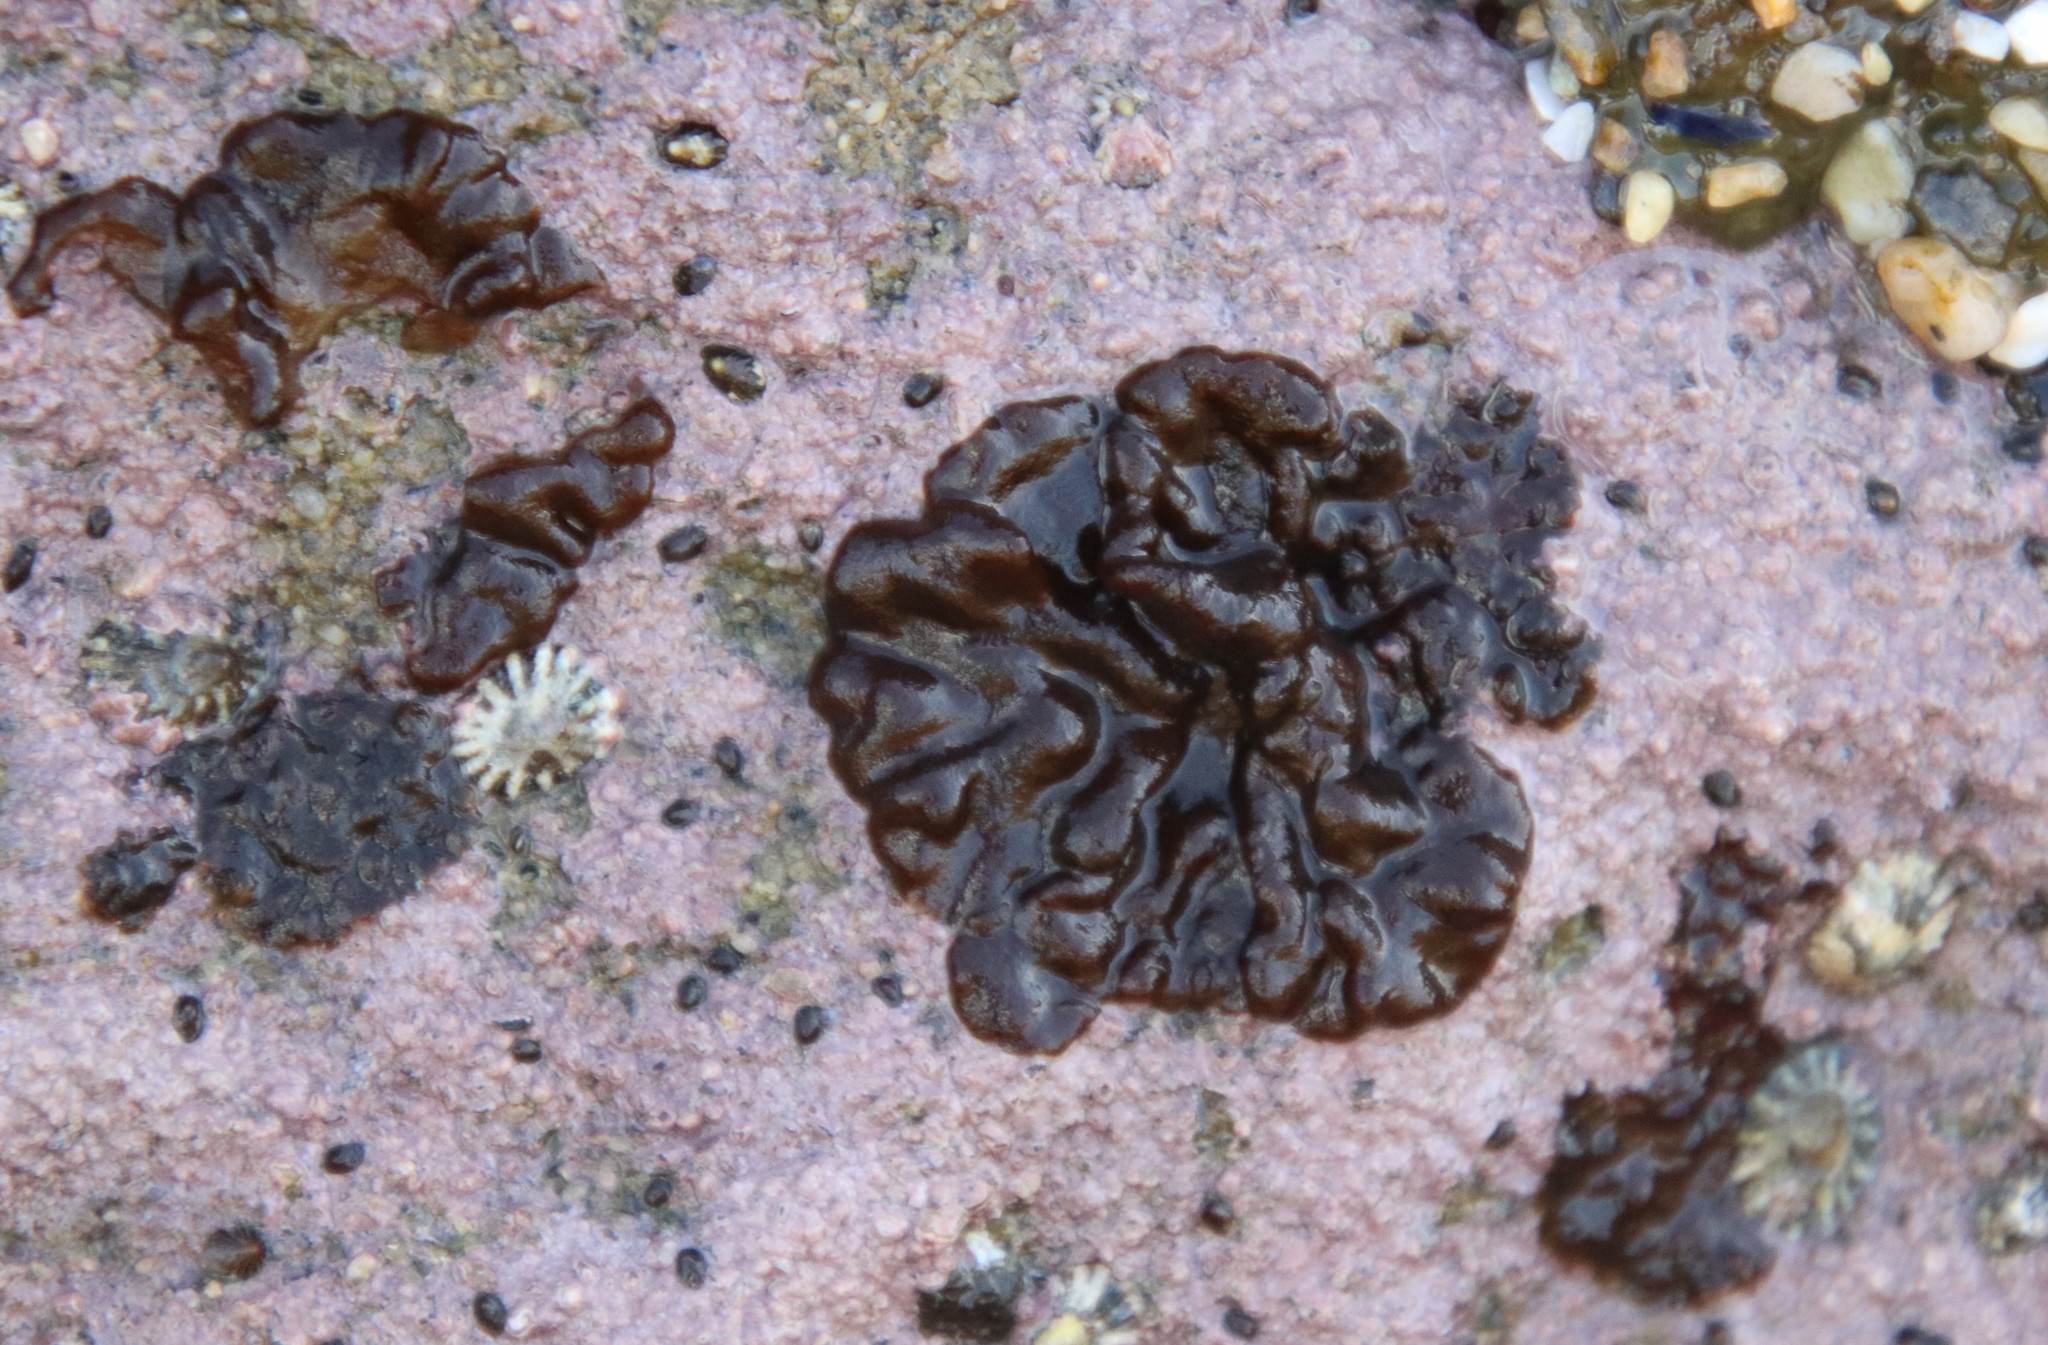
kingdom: Chromista
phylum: Ochrophyta
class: Phaeophyceae
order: Ectocarpales
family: Petrospongiaceae
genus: Petrospongium
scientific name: Petrospongium rugosum
